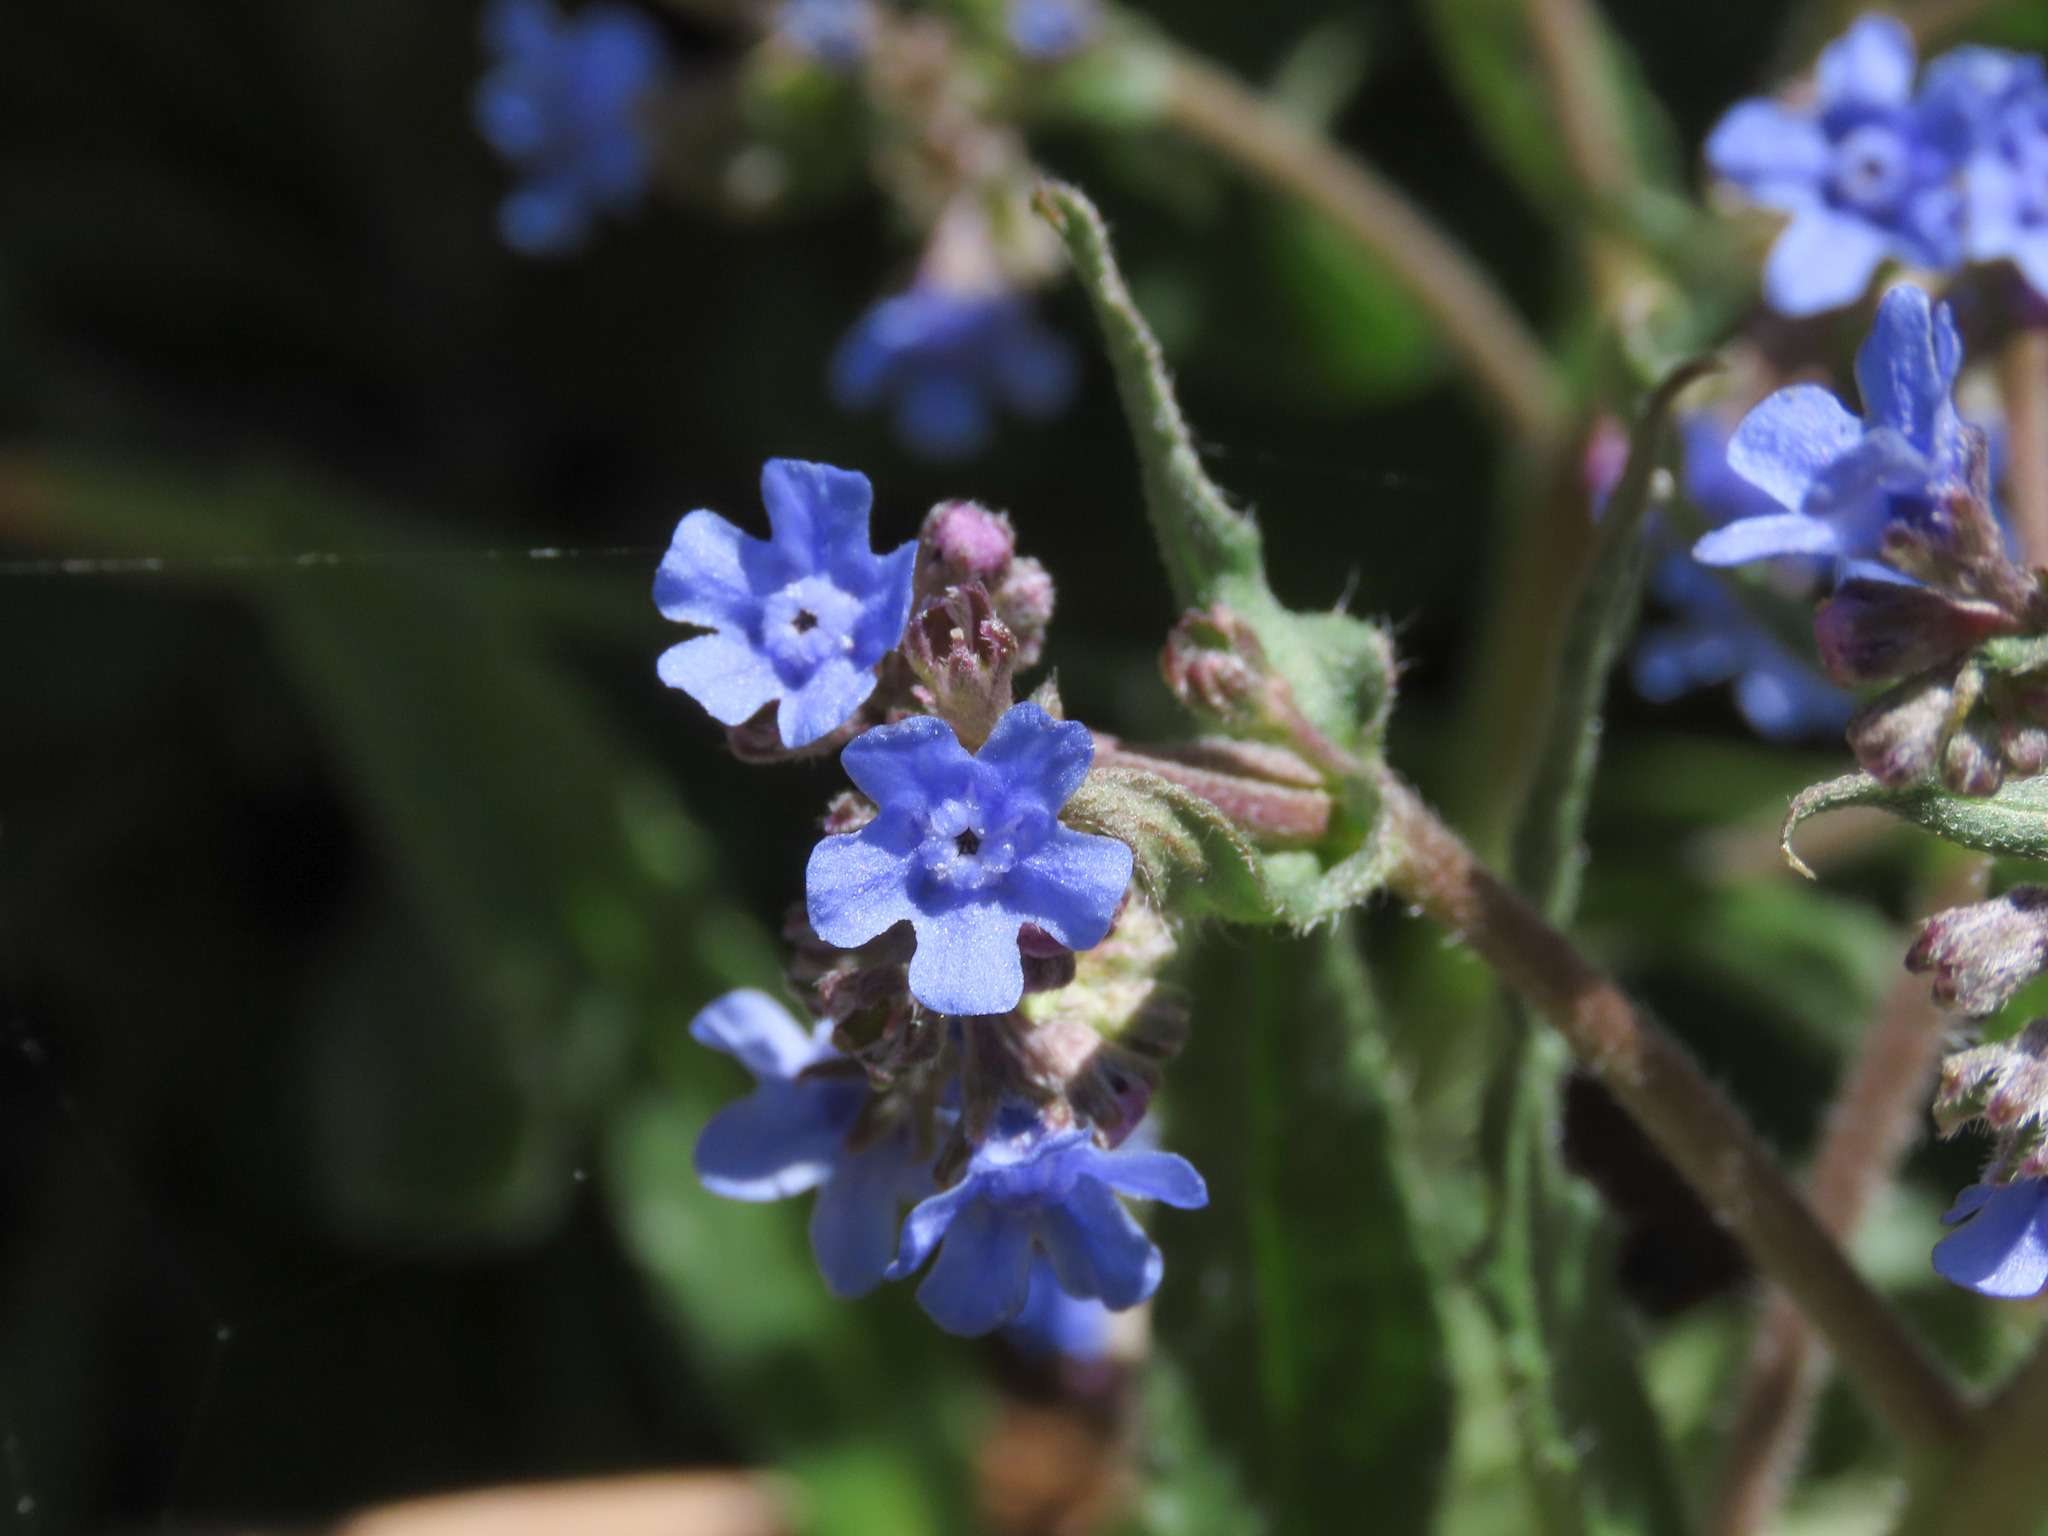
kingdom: Plantae
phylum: Tracheophyta
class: Magnoliopsida
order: Boraginales
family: Boraginaceae
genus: Cynoglottis
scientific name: Cynoglottis barrelieri
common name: False alkanet
